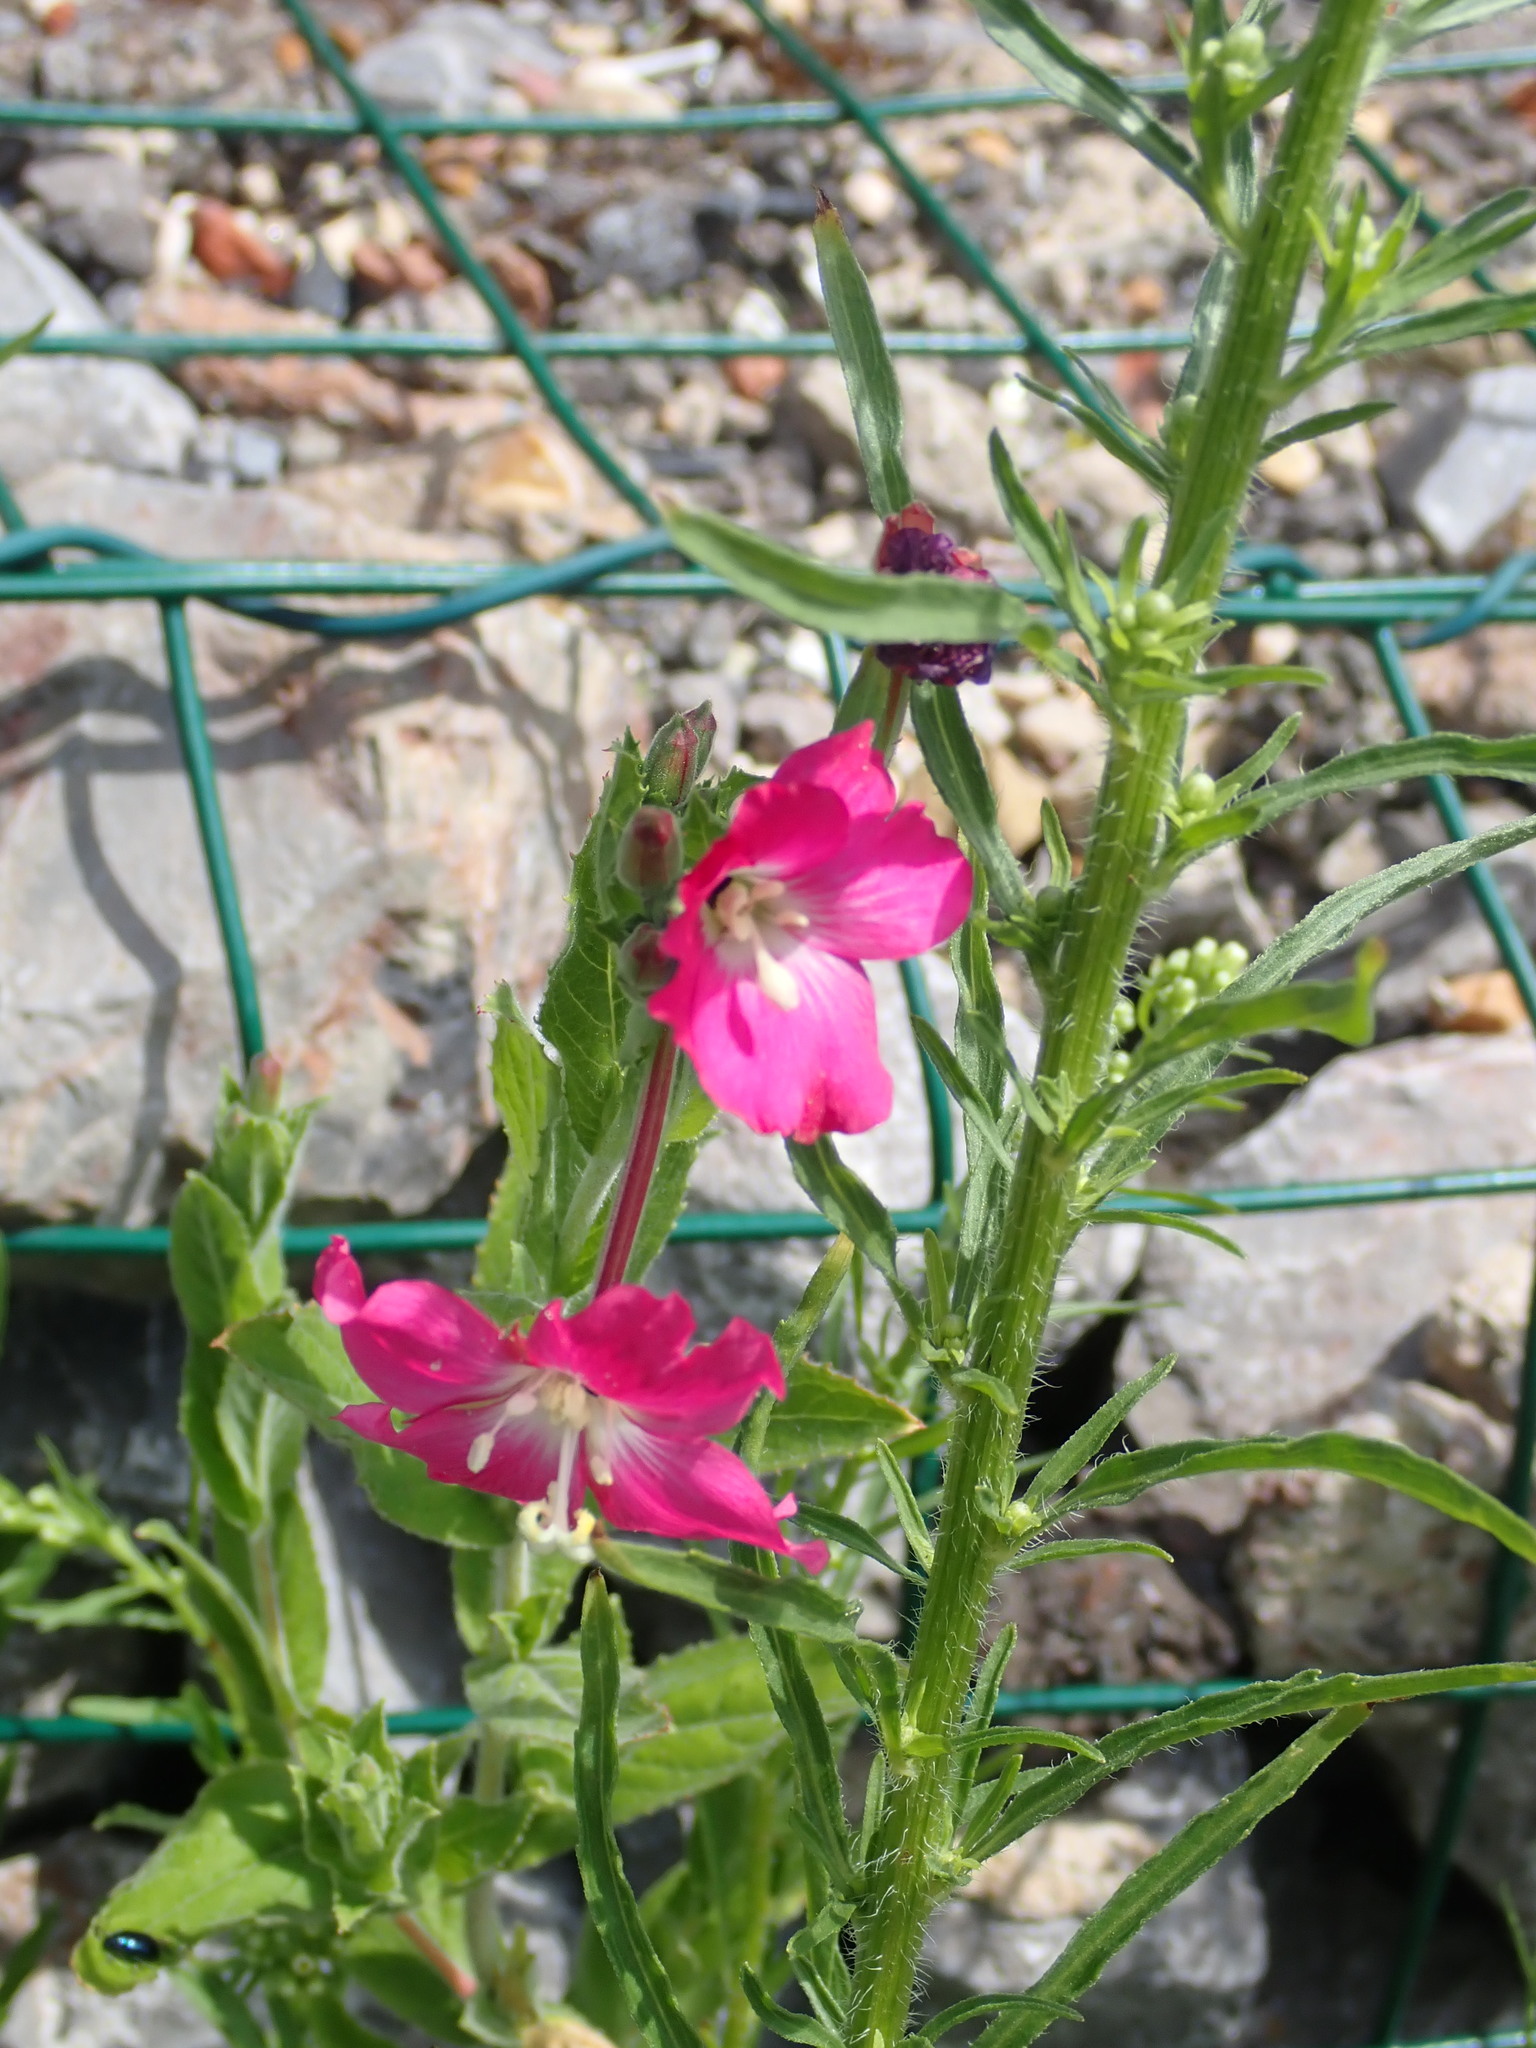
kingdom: Plantae
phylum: Tracheophyta
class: Magnoliopsida
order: Myrtales
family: Onagraceae
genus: Epilobium
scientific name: Epilobium hirsutum
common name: Great willowherb
